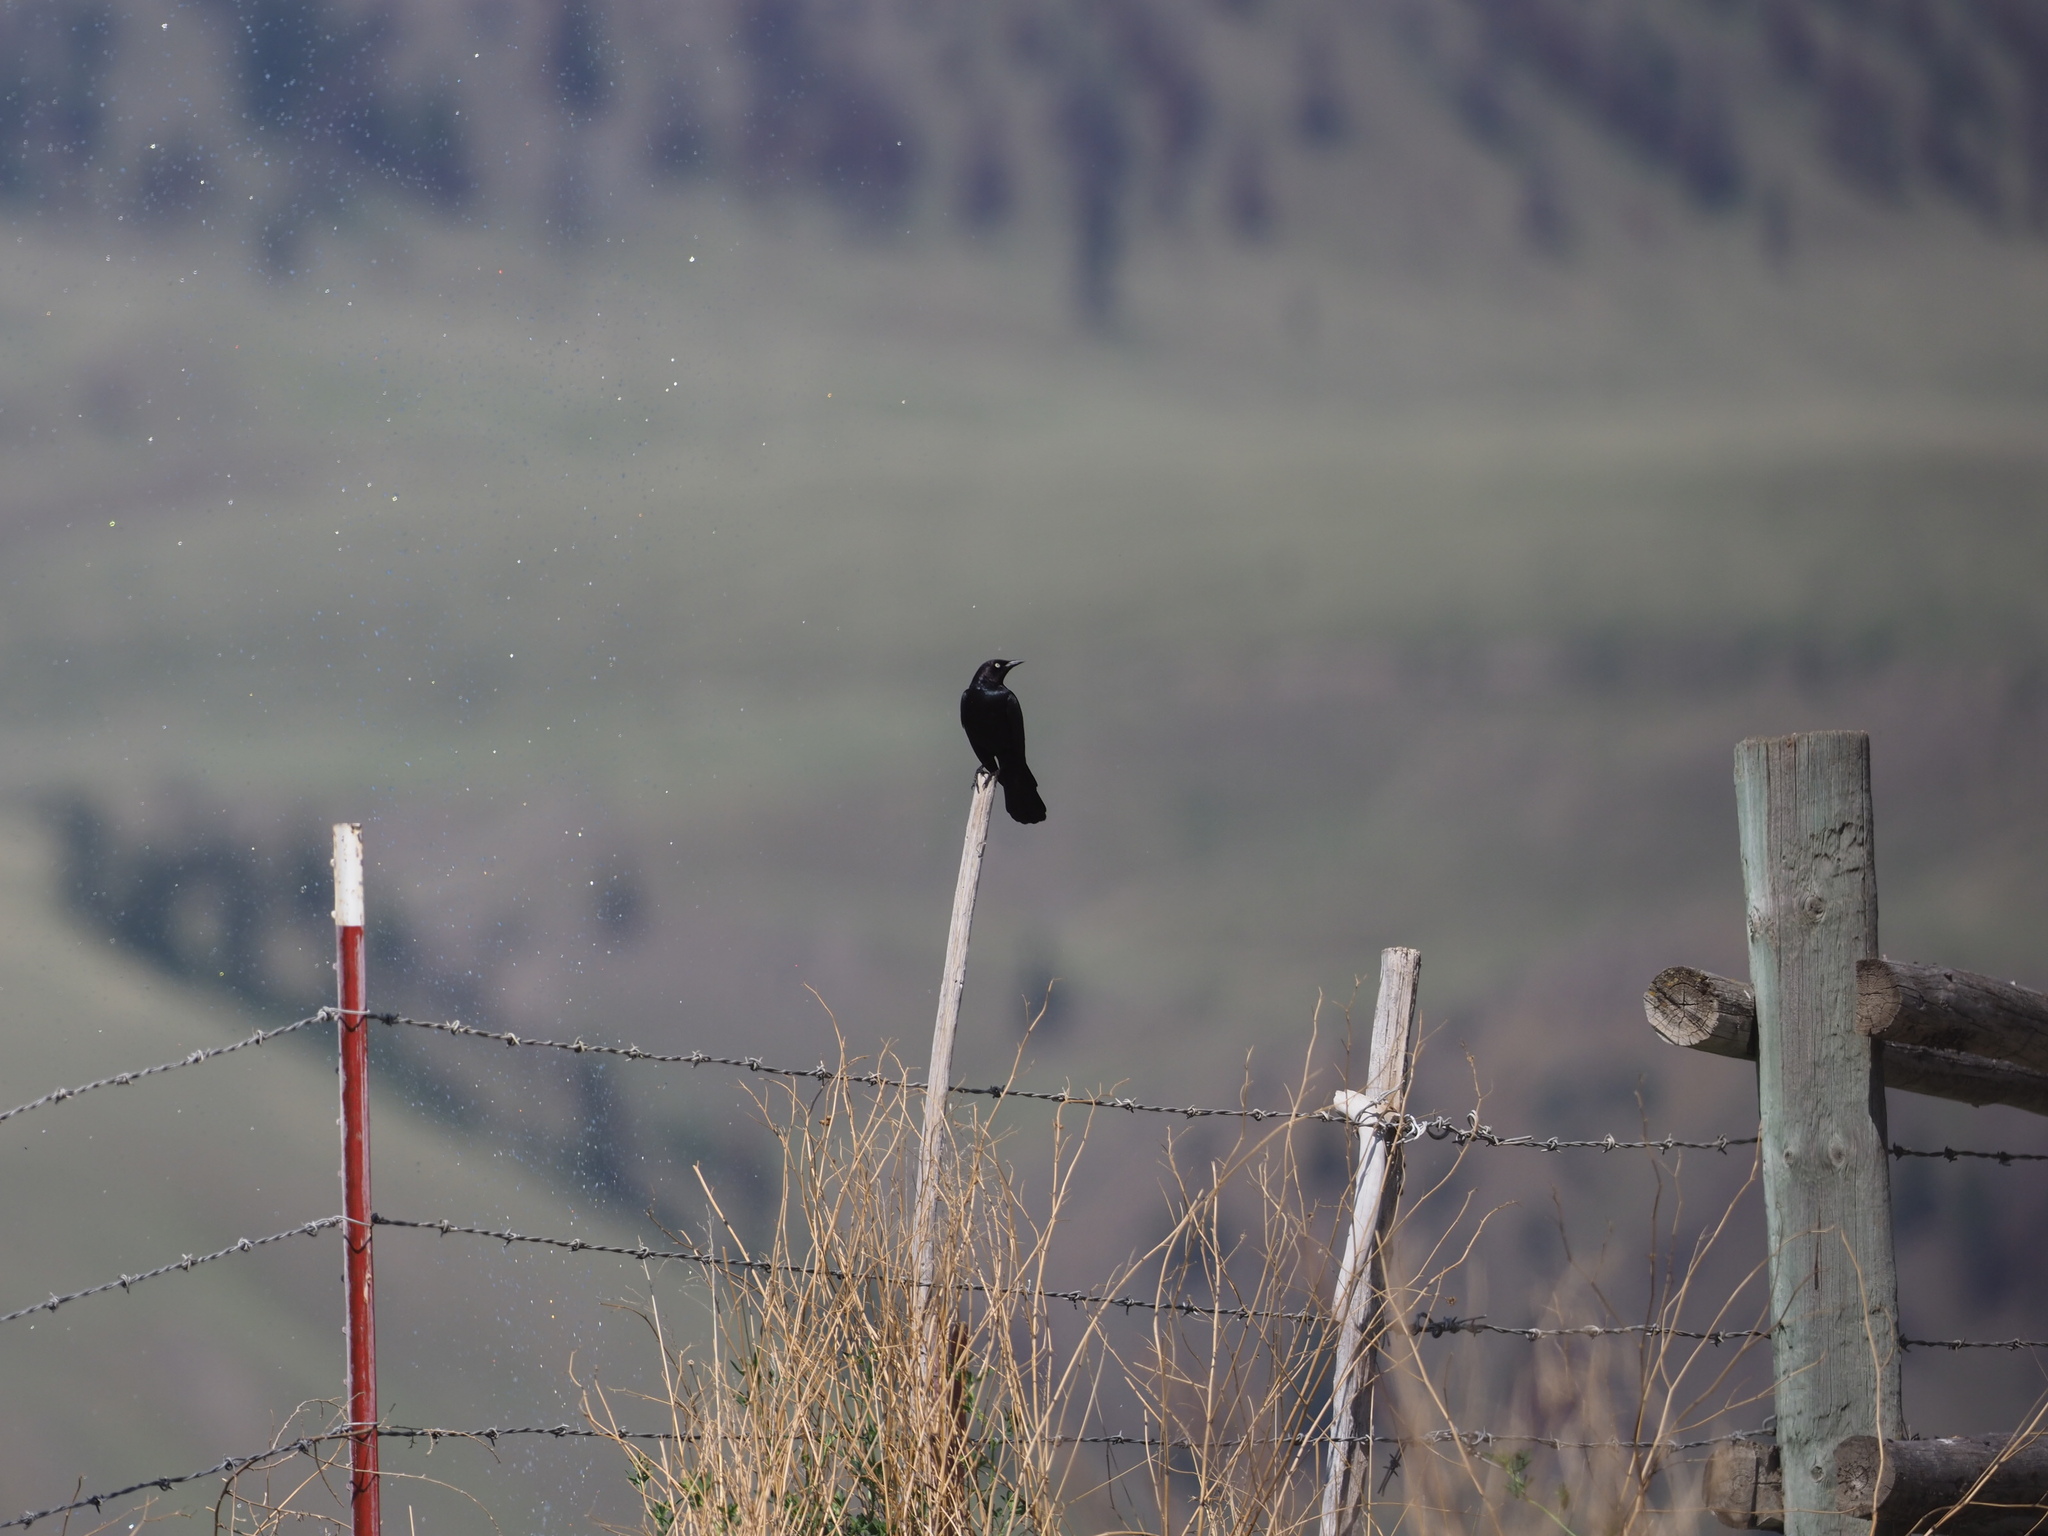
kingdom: Animalia
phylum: Chordata
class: Aves
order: Passeriformes
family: Icteridae
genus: Euphagus
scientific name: Euphagus cyanocephalus
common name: Brewer's blackbird
